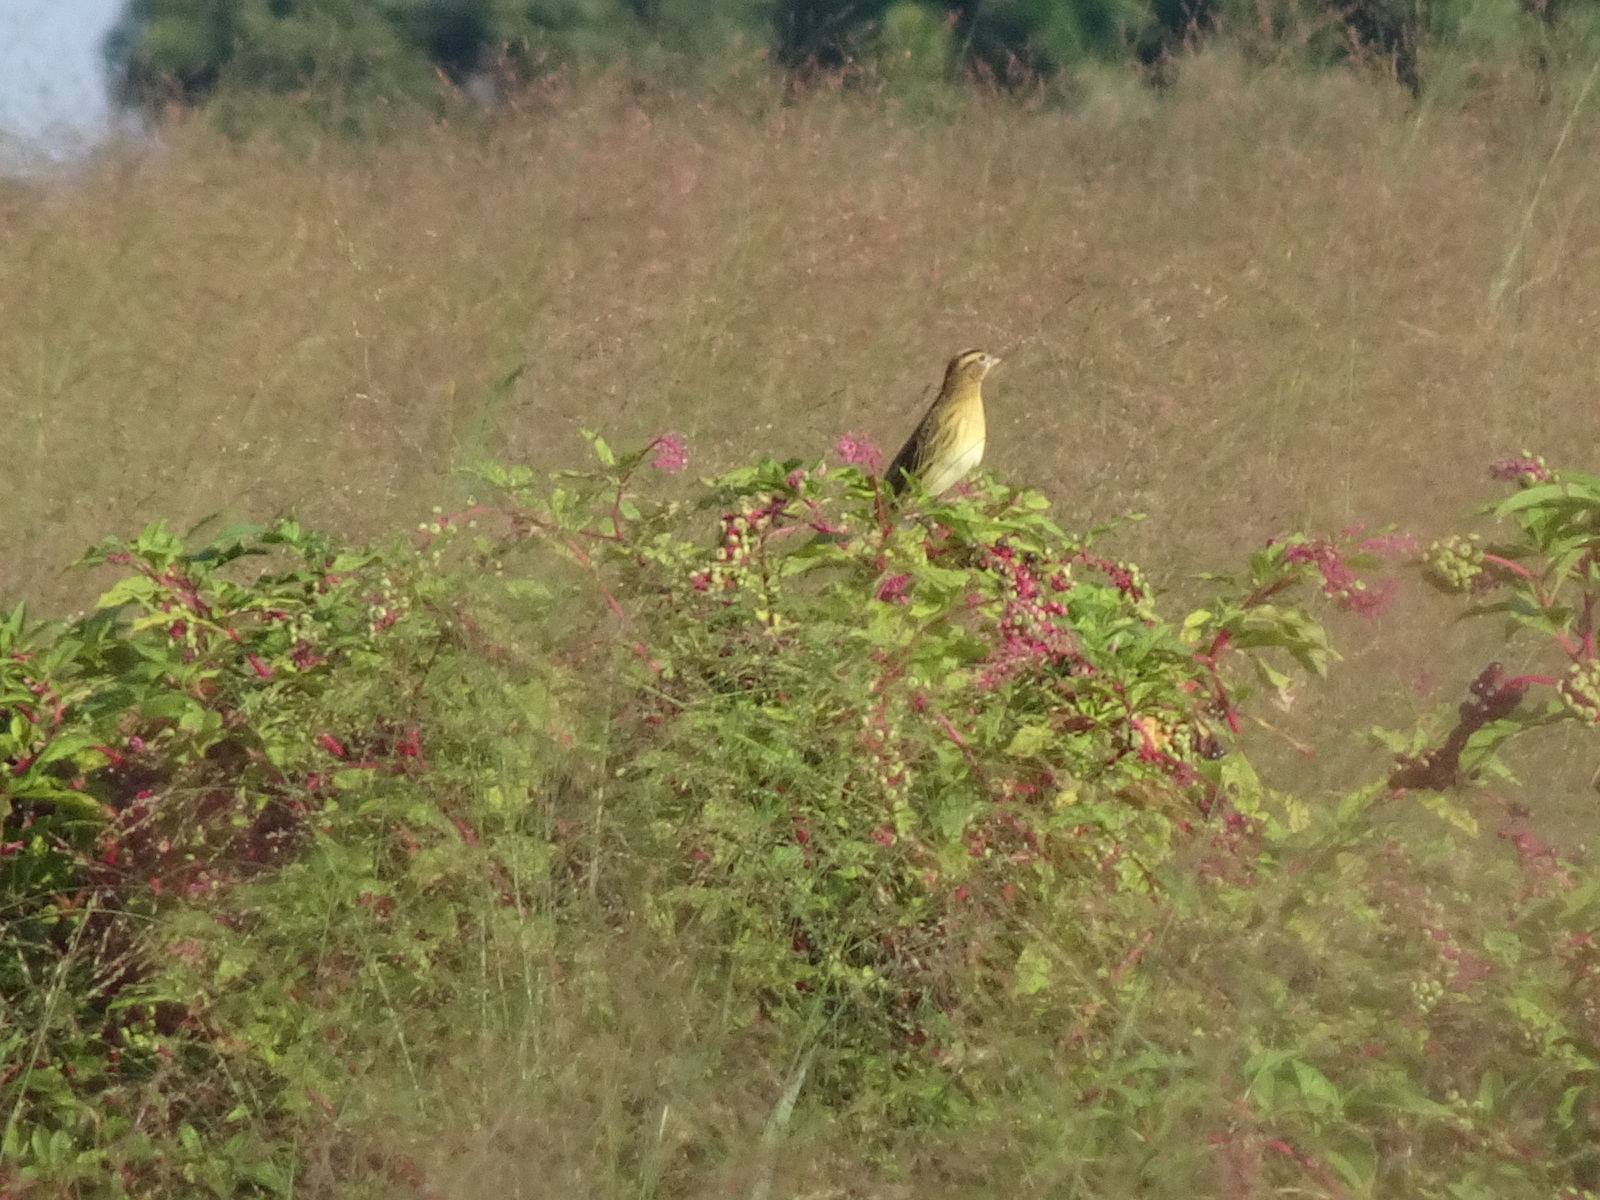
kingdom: Animalia
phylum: Chordata
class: Aves
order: Passeriformes
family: Icteridae
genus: Dolichonyx
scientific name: Dolichonyx oryzivorus
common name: Bobolink
